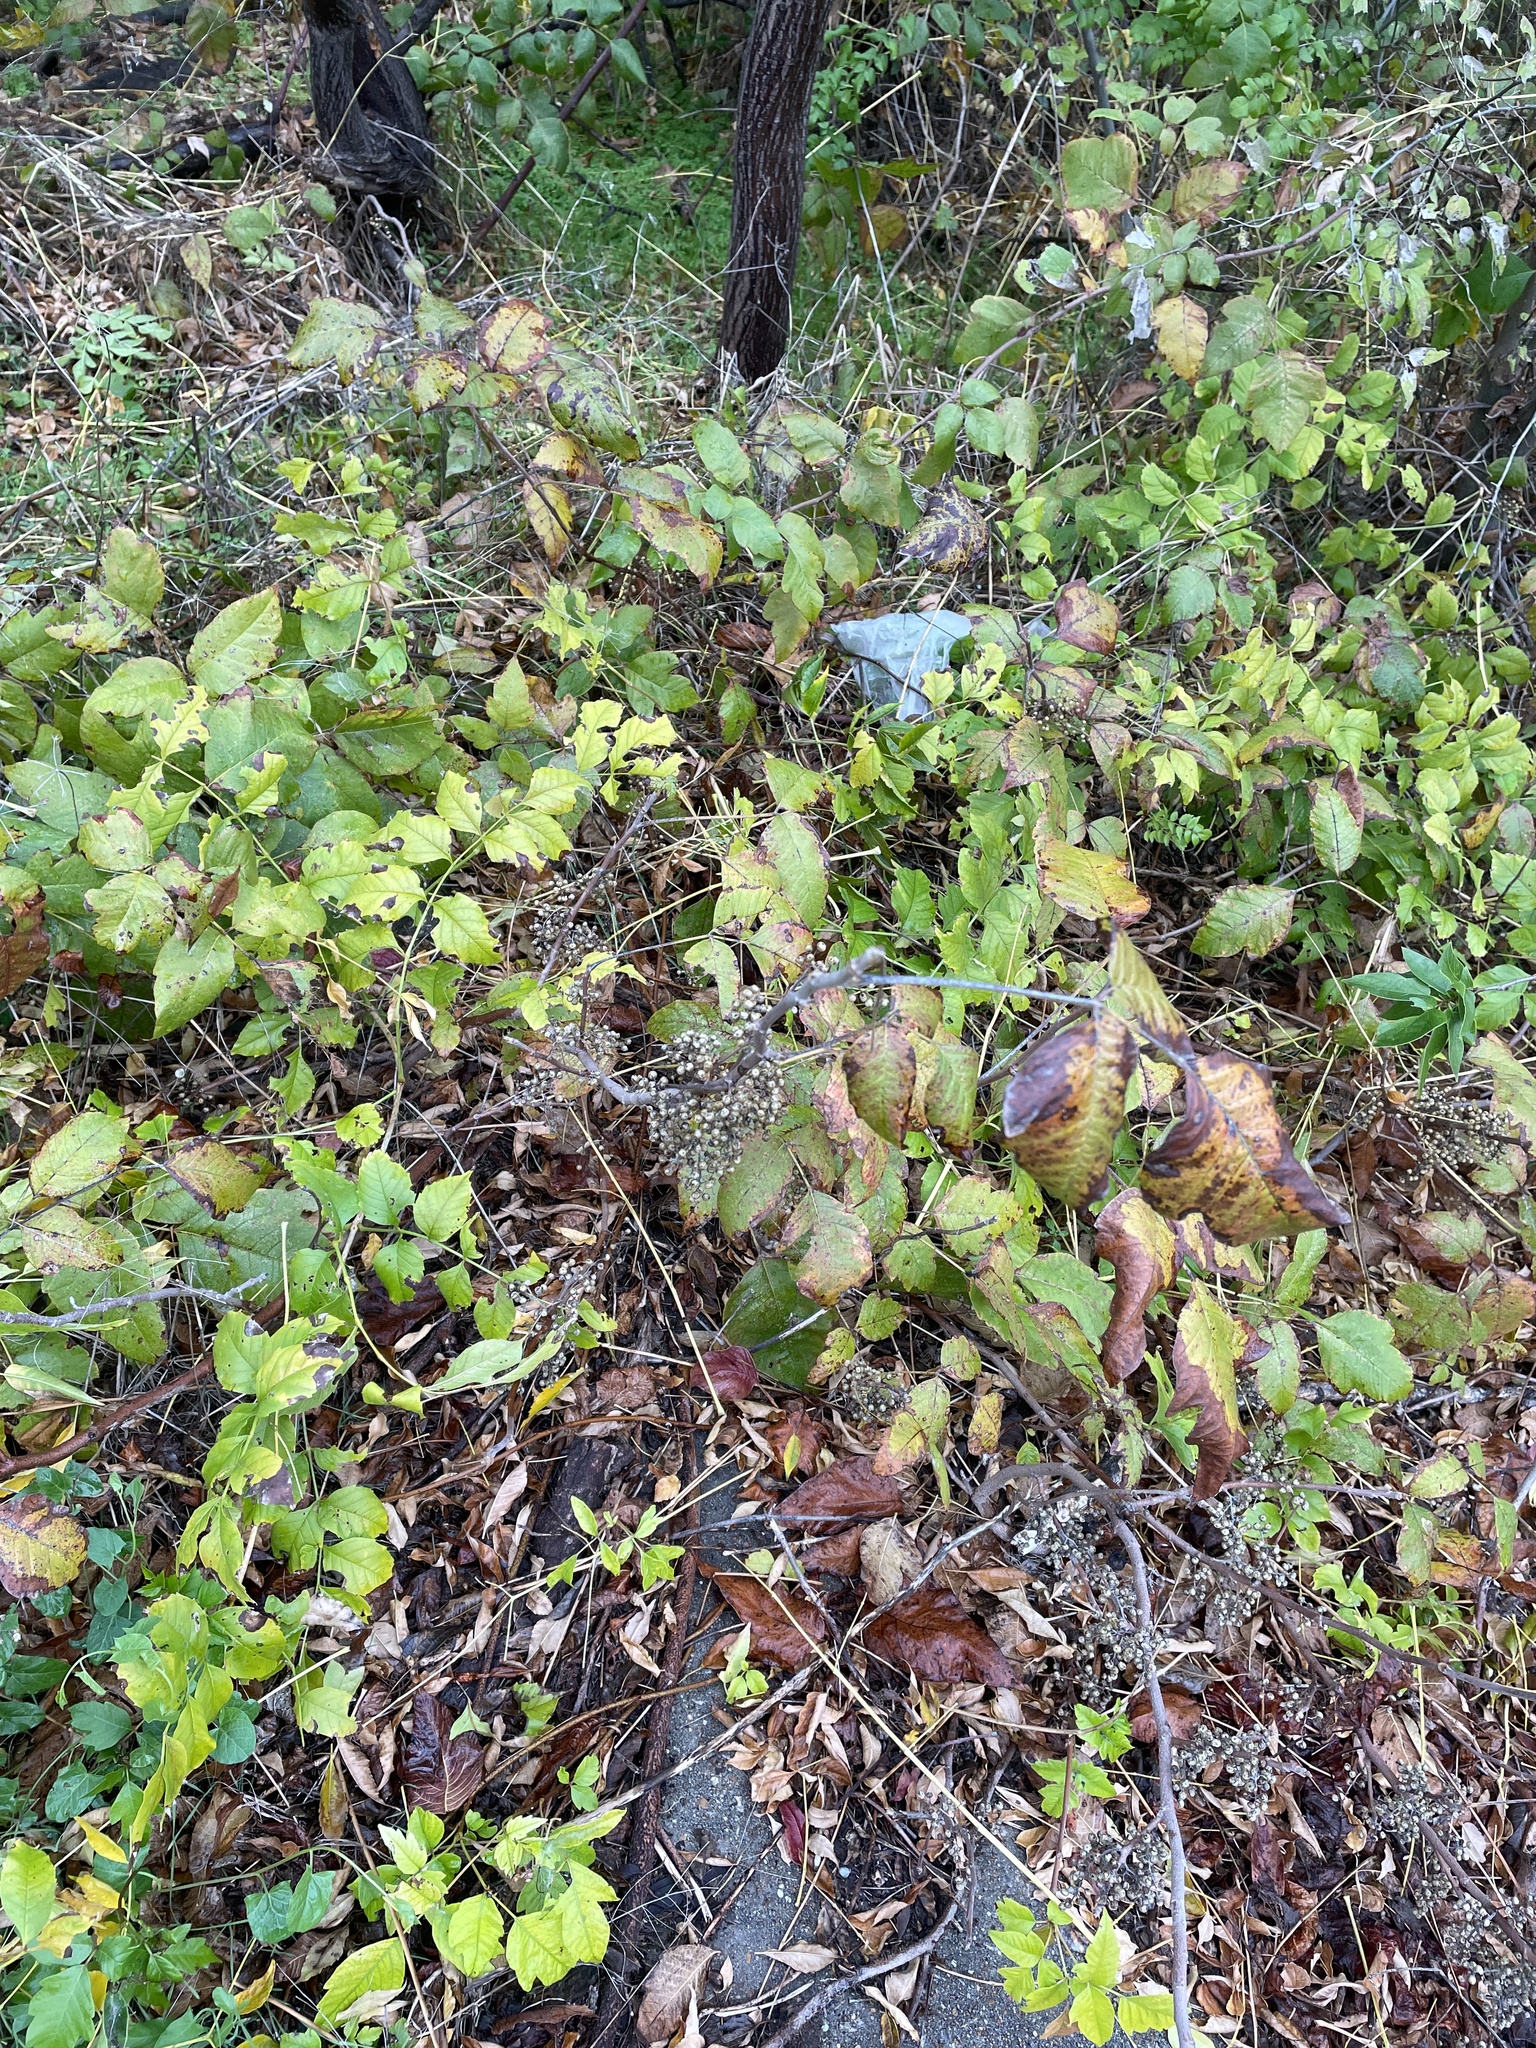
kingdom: Plantae
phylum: Tracheophyta
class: Magnoliopsida
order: Sapindales
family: Anacardiaceae
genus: Toxicodendron
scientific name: Toxicodendron radicans
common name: Poison ivy
